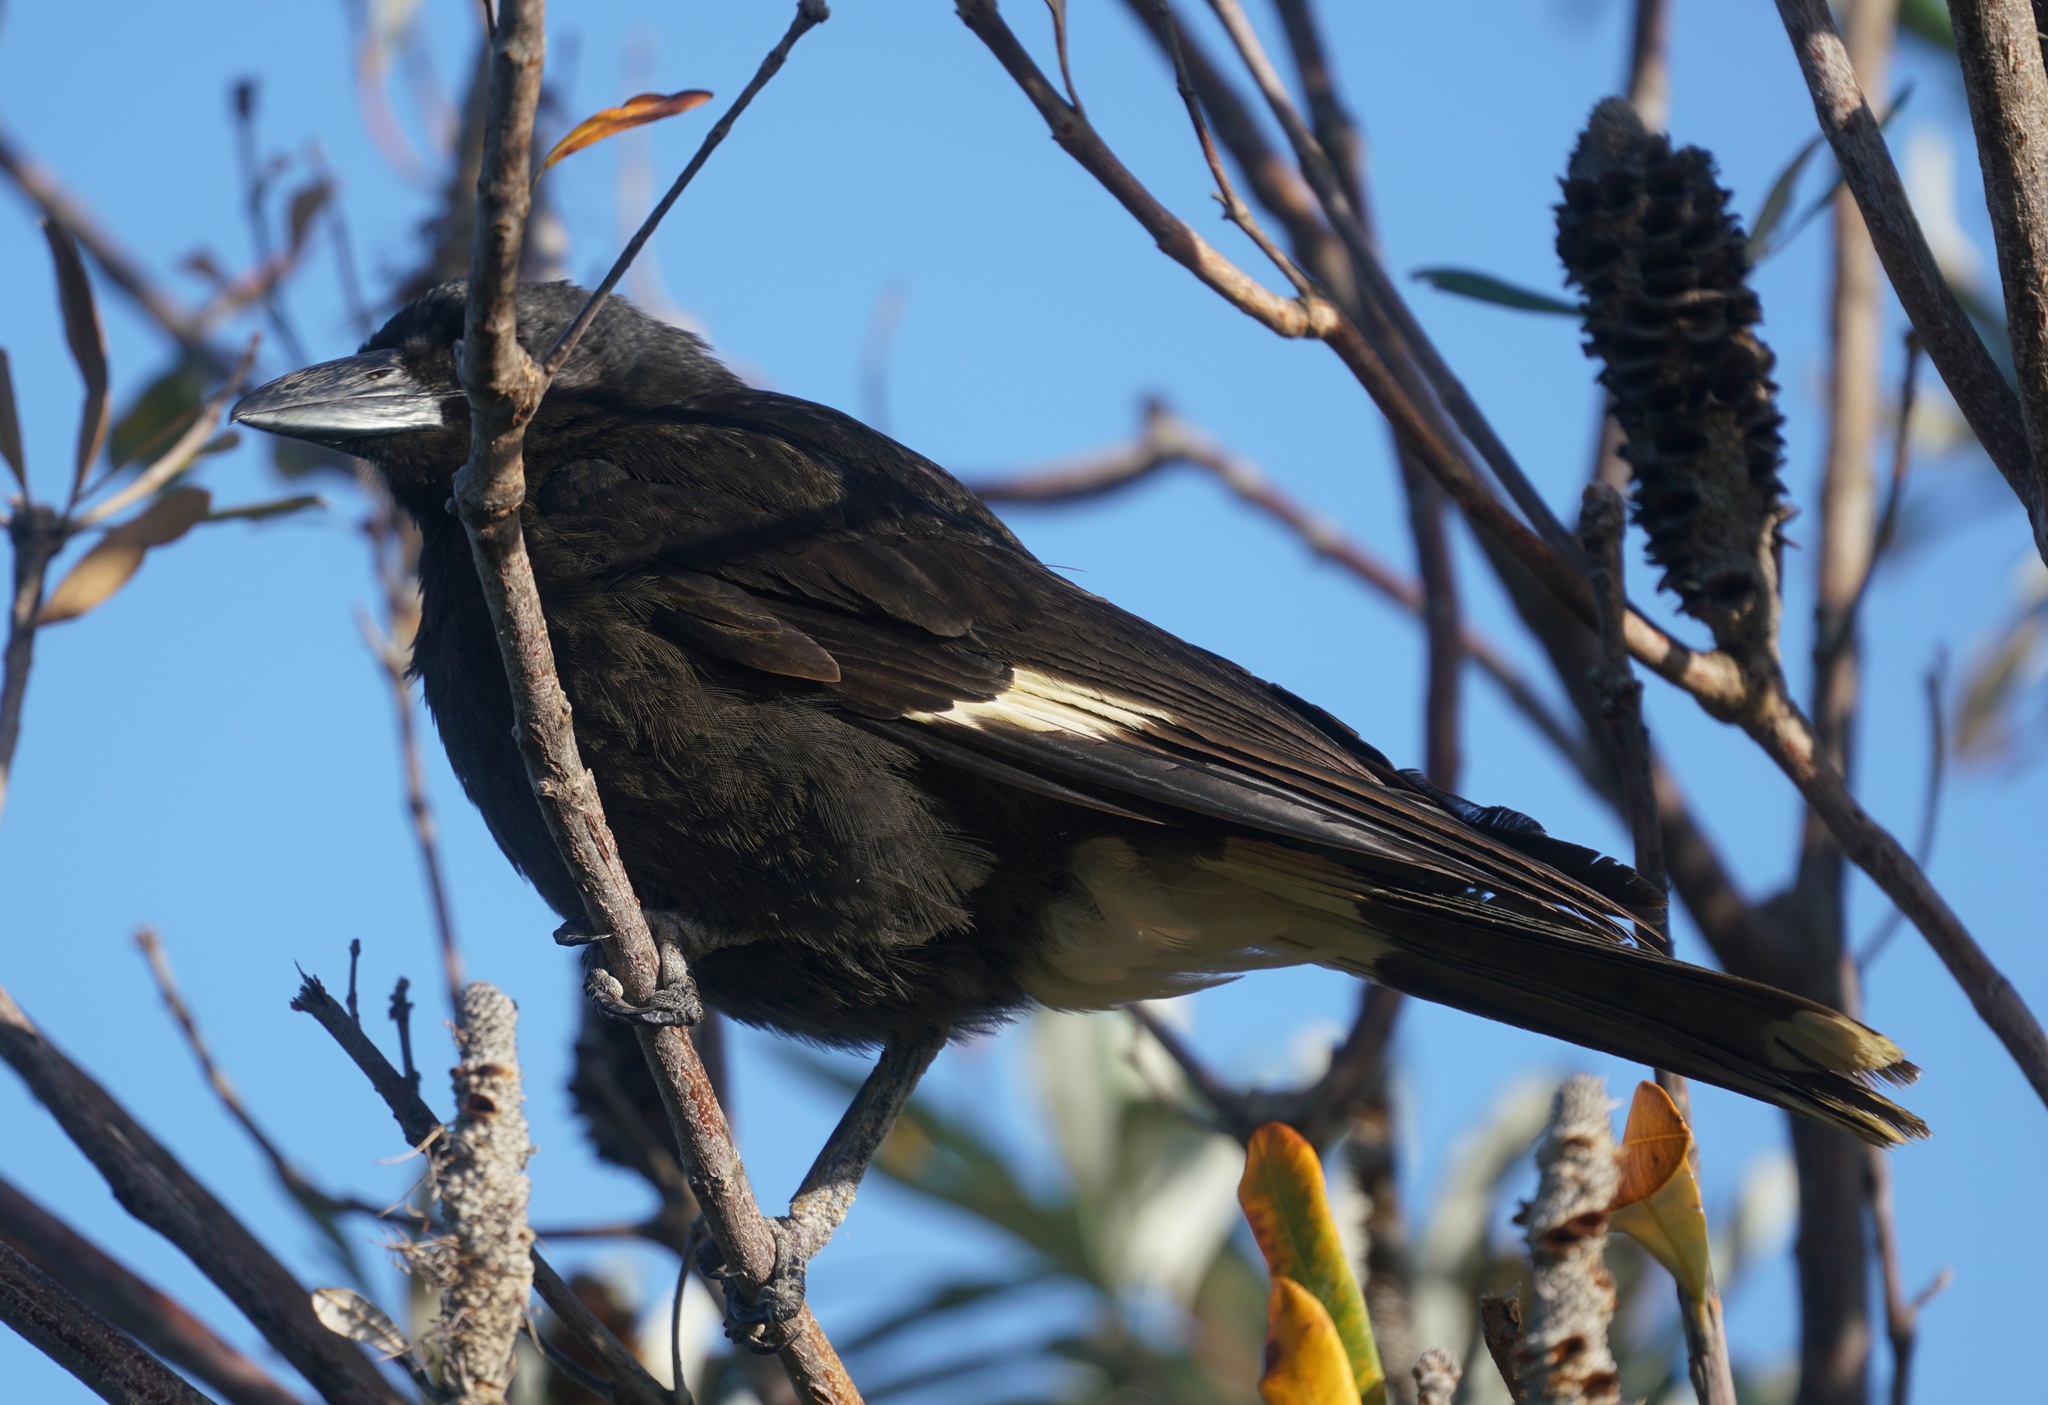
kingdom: Animalia
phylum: Chordata
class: Aves
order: Passeriformes
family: Cracticidae
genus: Strepera
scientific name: Strepera graculina
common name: Pied currawong
